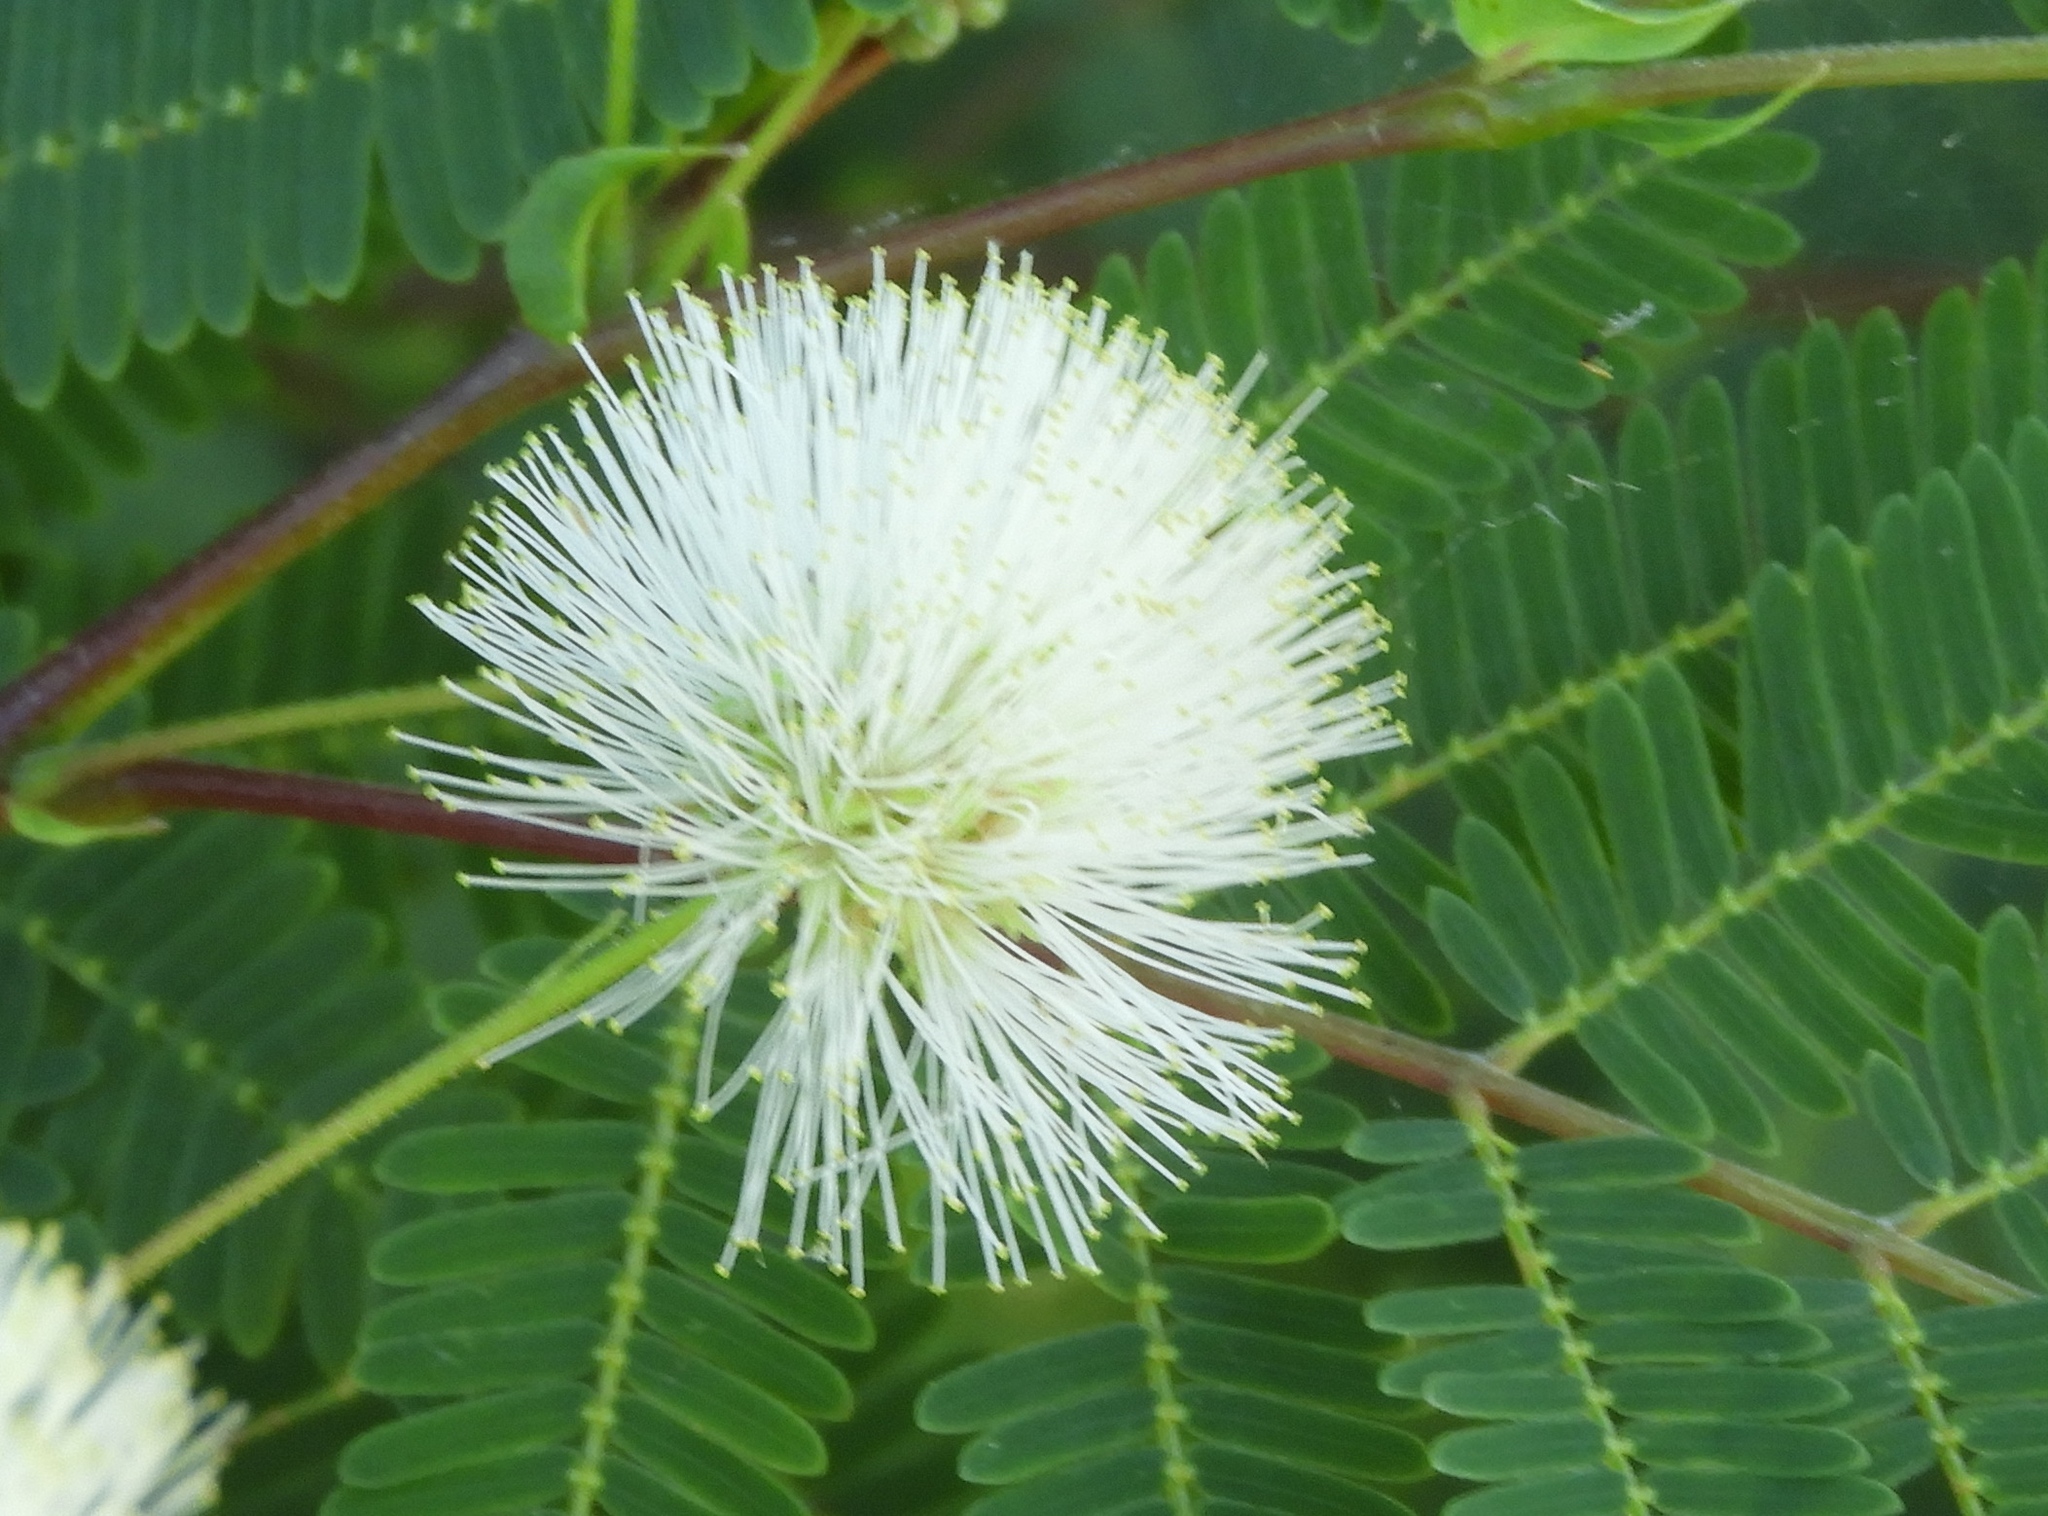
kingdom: Plantae
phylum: Tracheophyta
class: Magnoliopsida
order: Fabales
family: Fabaceae
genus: Lysiloma
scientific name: Lysiloma divaricatum
